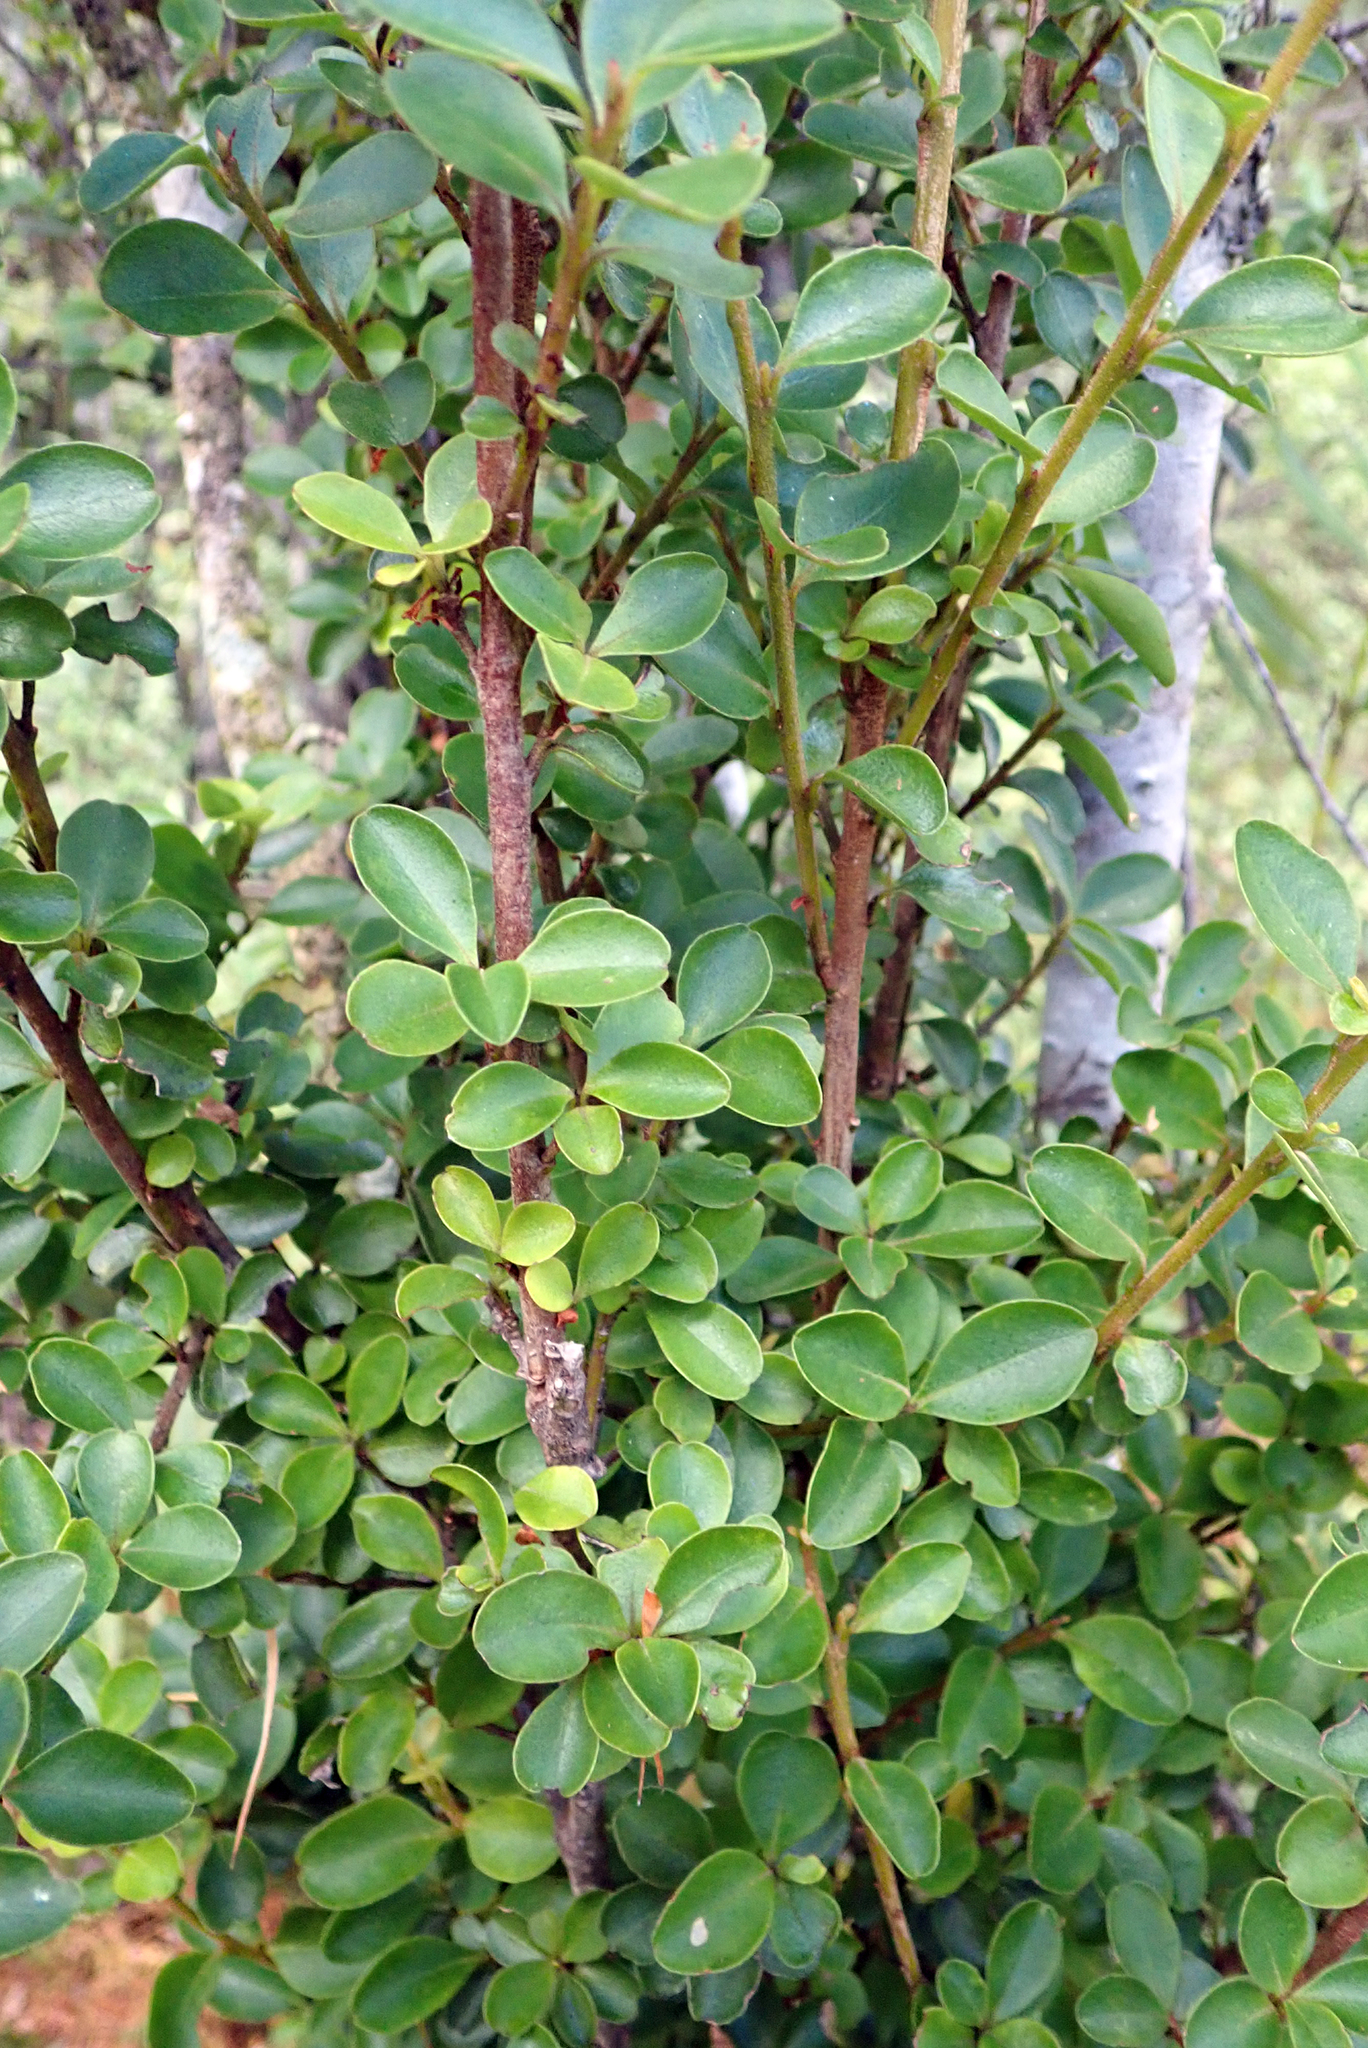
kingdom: Plantae
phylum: Tracheophyta
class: Magnoliopsida
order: Ericales
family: Primulaceae
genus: Myrsine
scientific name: Myrsine coxii
